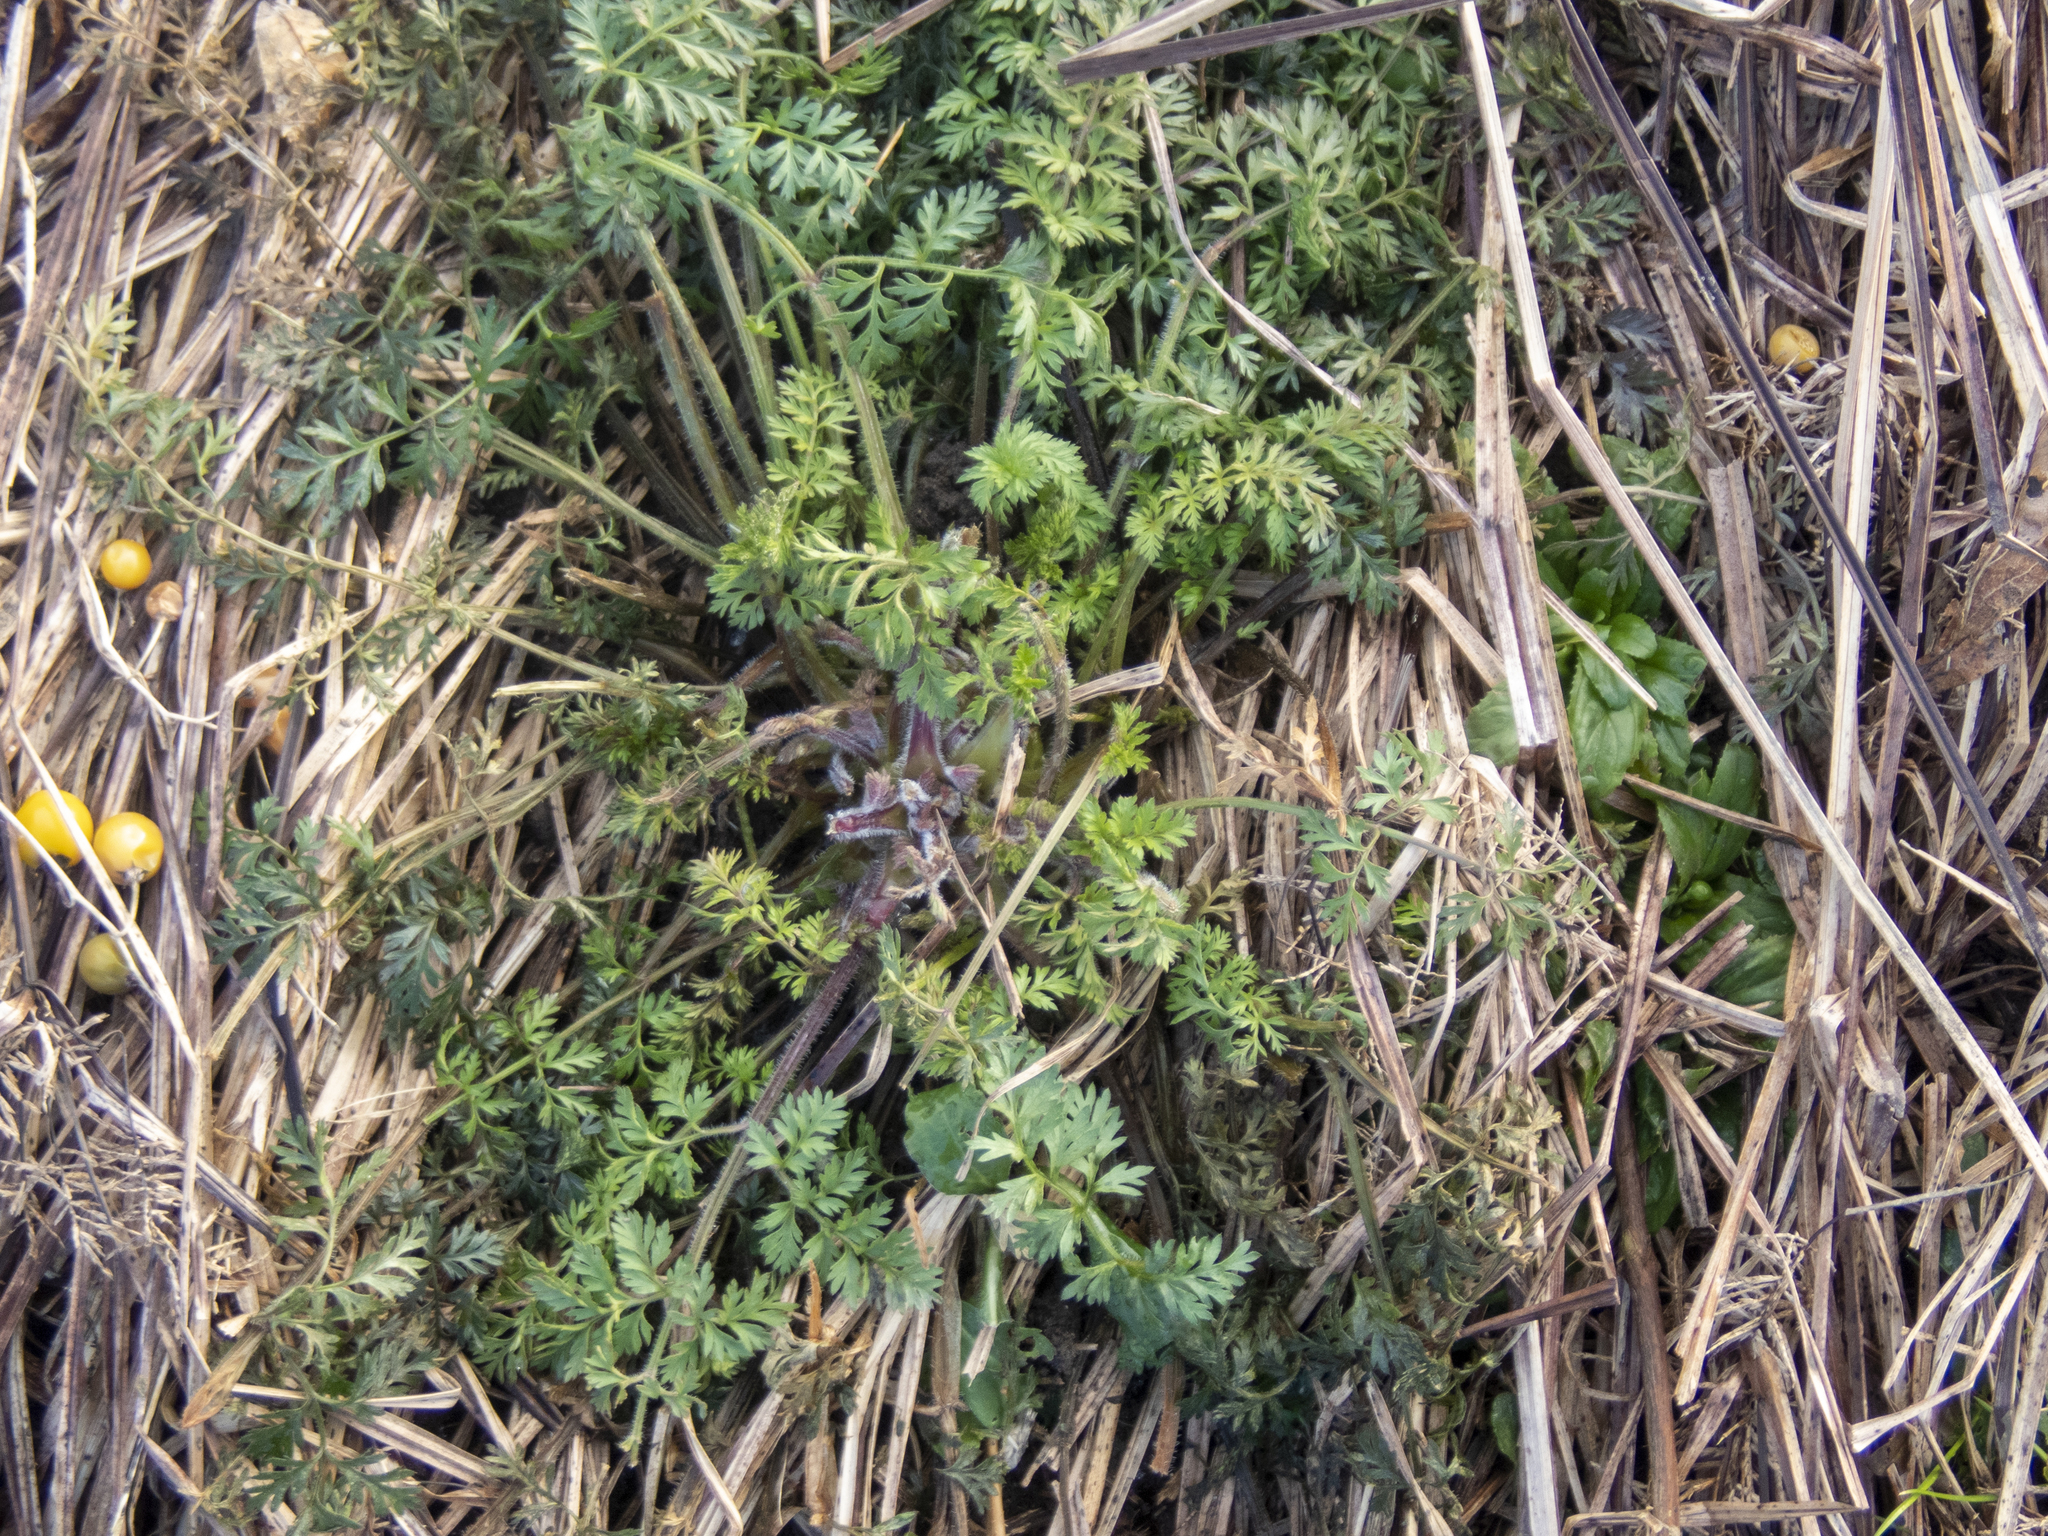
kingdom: Plantae
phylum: Tracheophyta
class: Magnoliopsida
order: Apiales
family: Apiaceae
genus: Daucus
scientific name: Daucus carota
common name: Wild carrot
